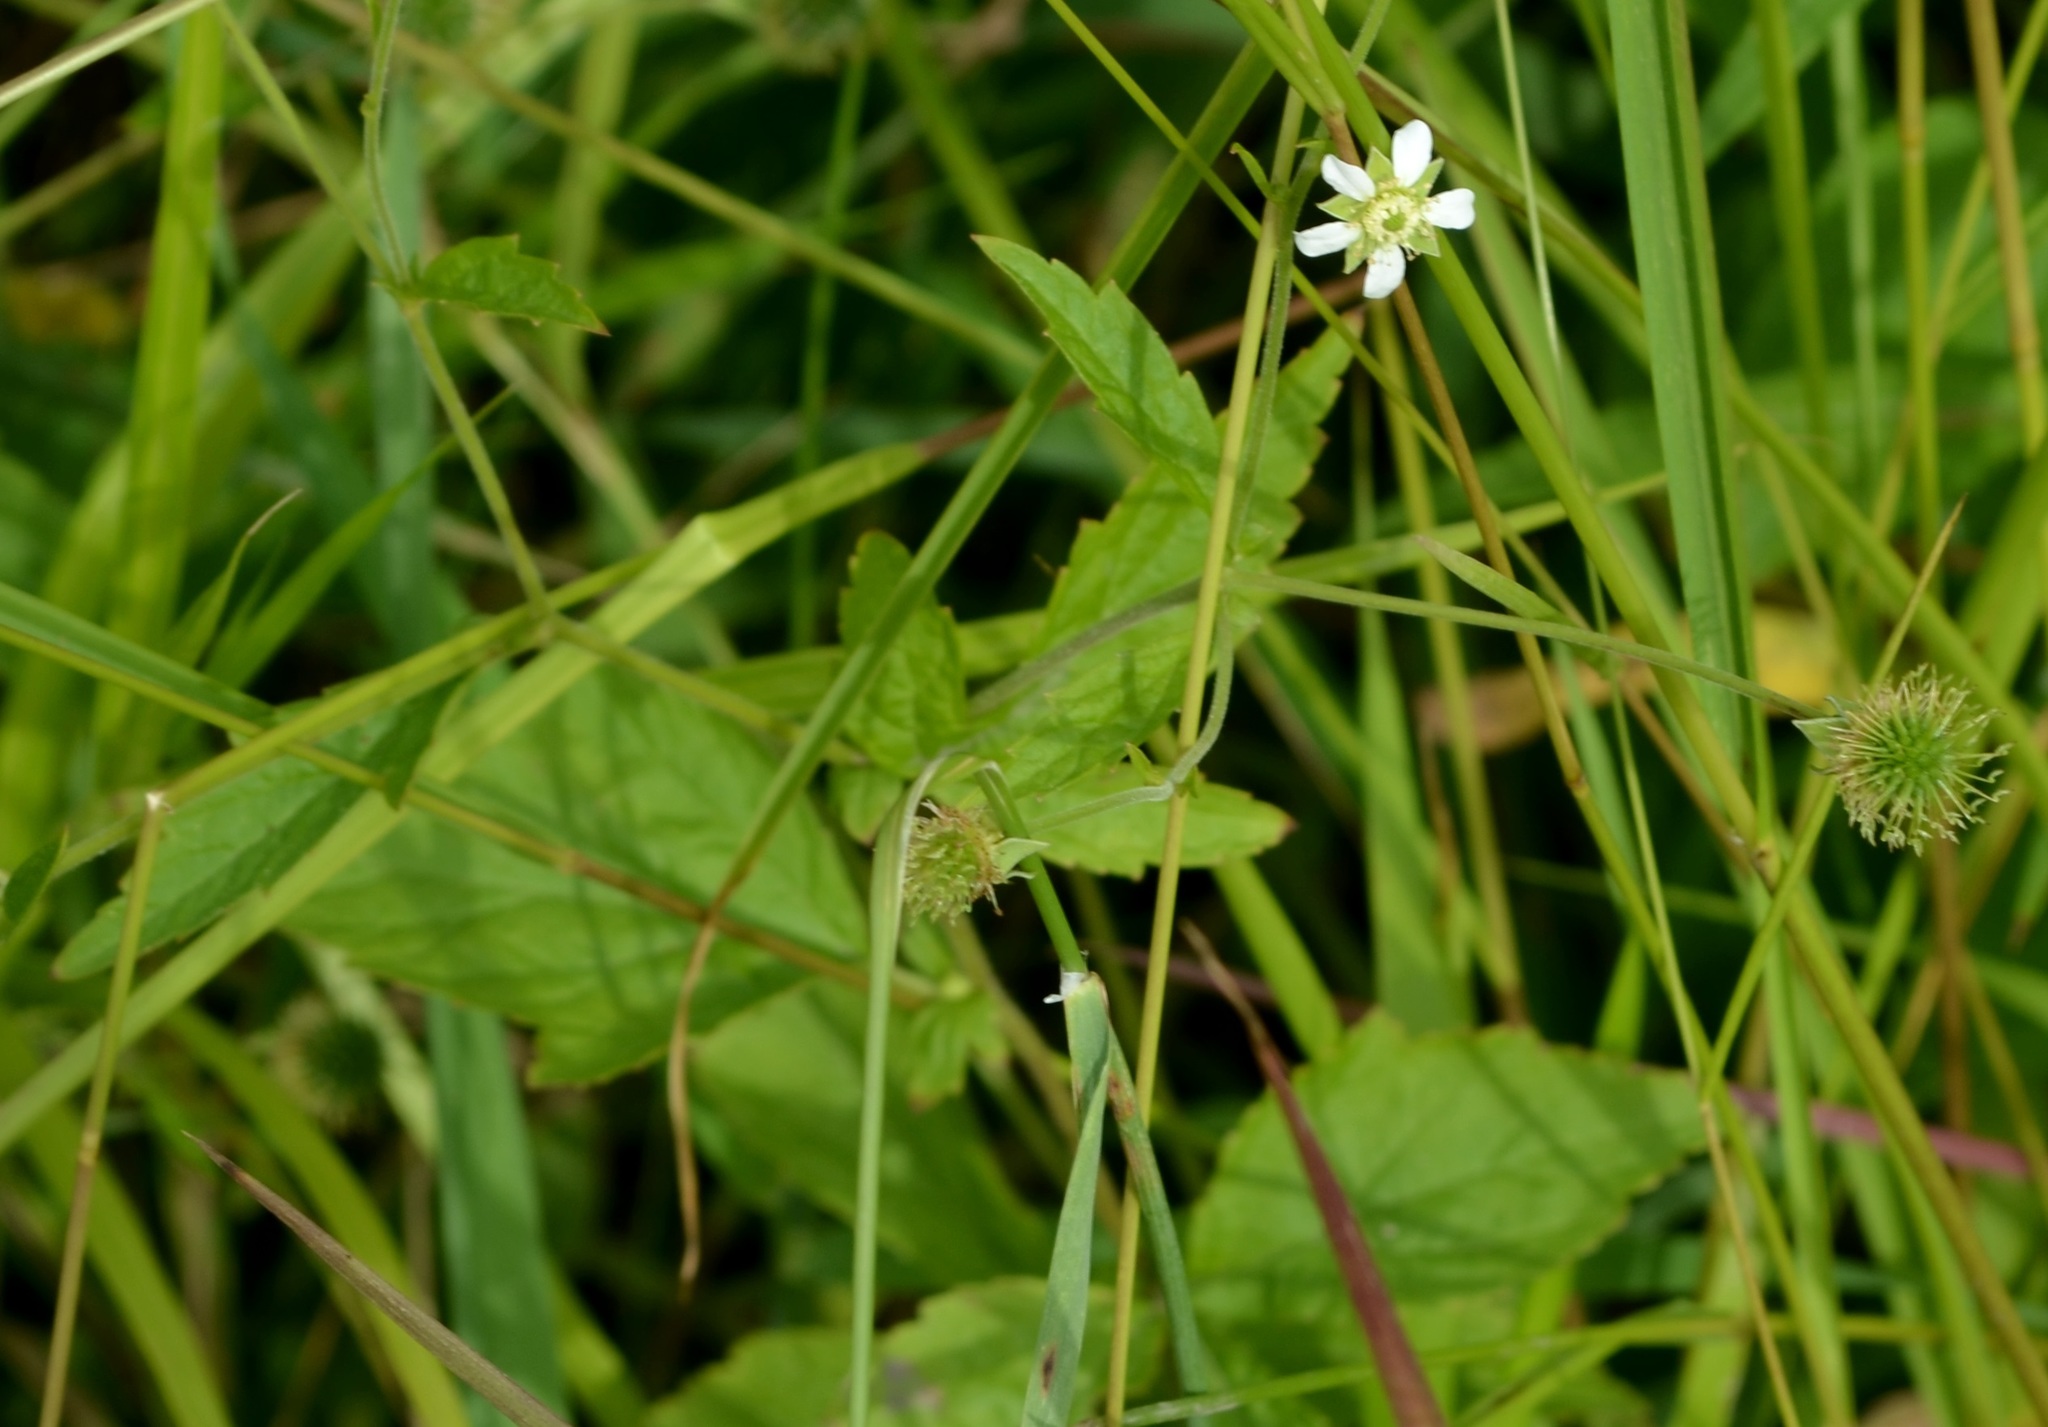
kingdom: Plantae
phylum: Tracheophyta
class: Magnoliopsida
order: Rosales
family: Rosaceae
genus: Geum
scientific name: Geum canadense
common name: White avens
